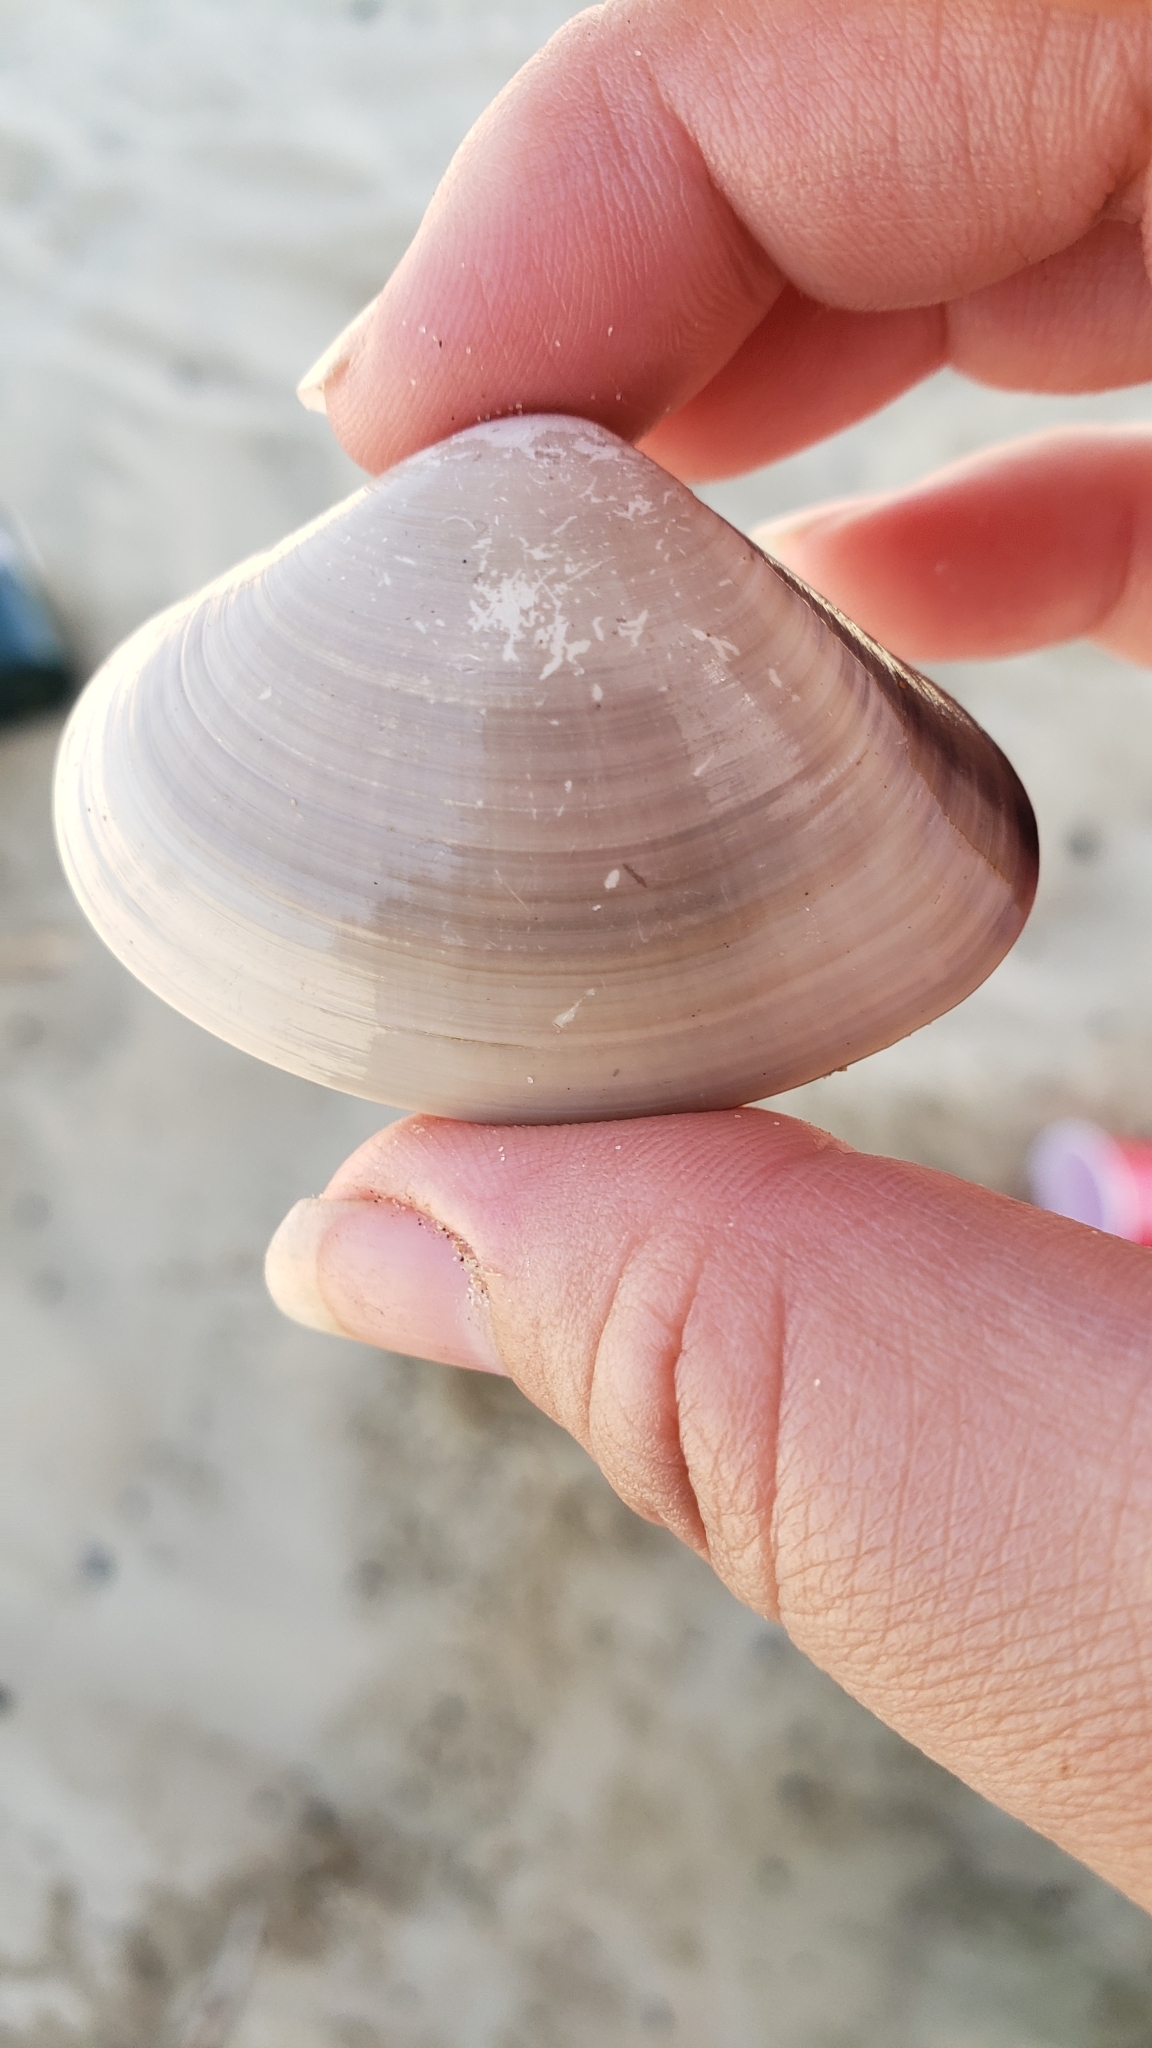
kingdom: Animalia
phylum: Mollusca
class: Bivalvia
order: Venerida
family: Veneridae
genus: Tivela
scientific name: Tivela stultorum
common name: Pismo clam
